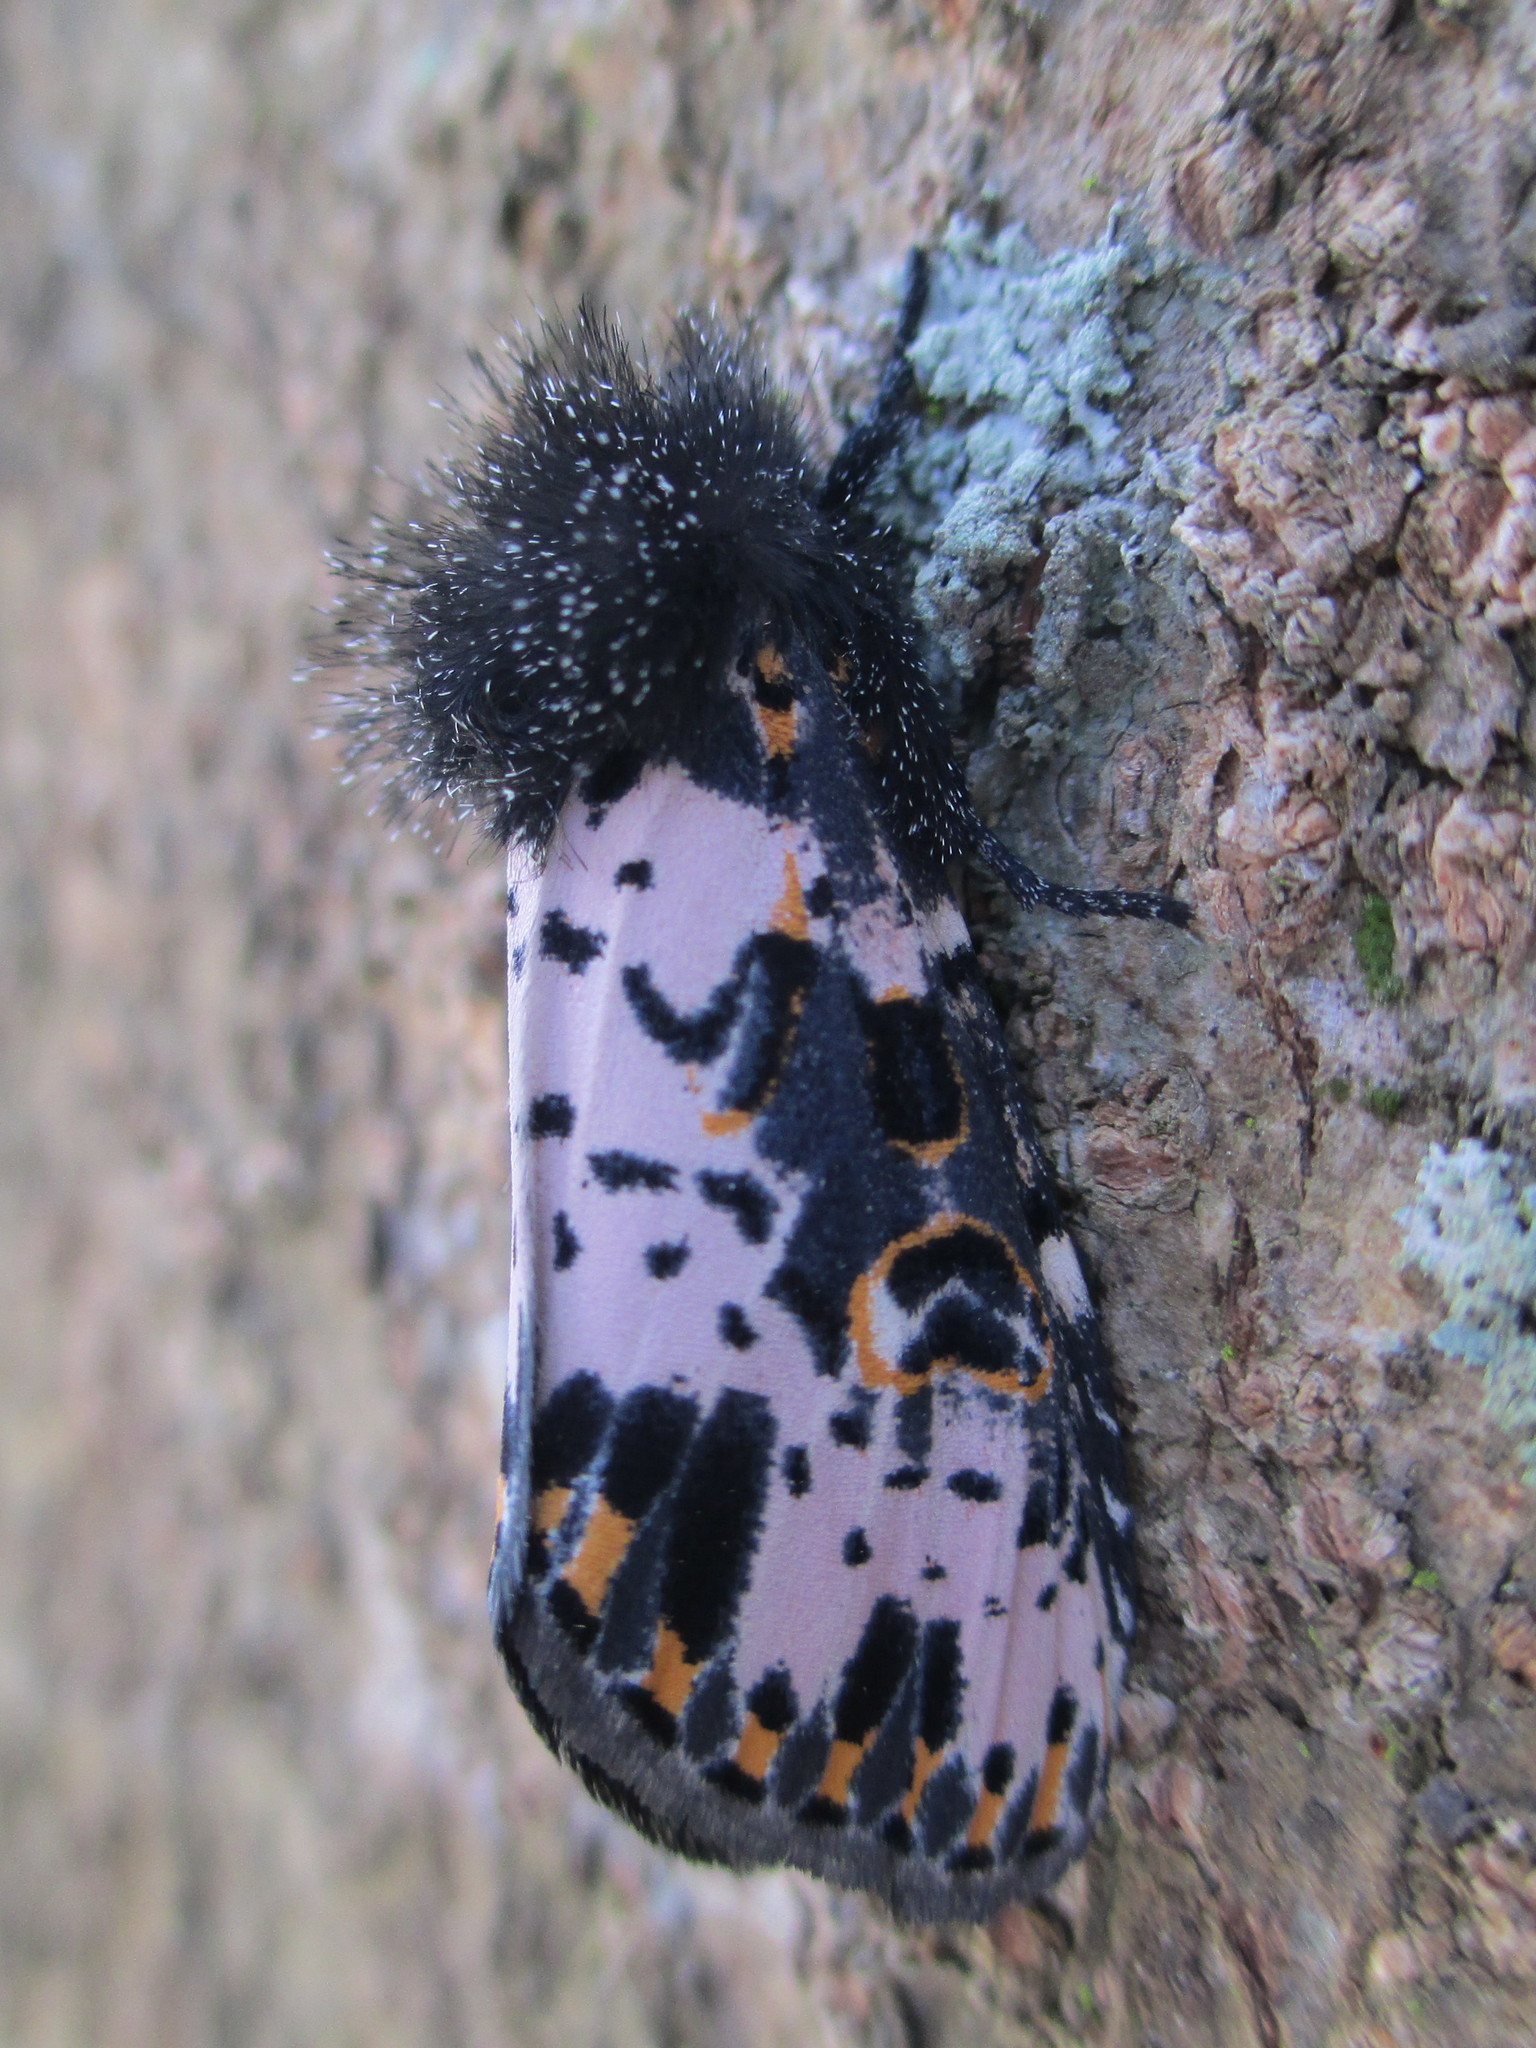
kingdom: Animalia
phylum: Arthropoda
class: Insecta
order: Lepidoptera
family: Noctuidae
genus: Xanthopastis
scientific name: Xanthopastis timais
